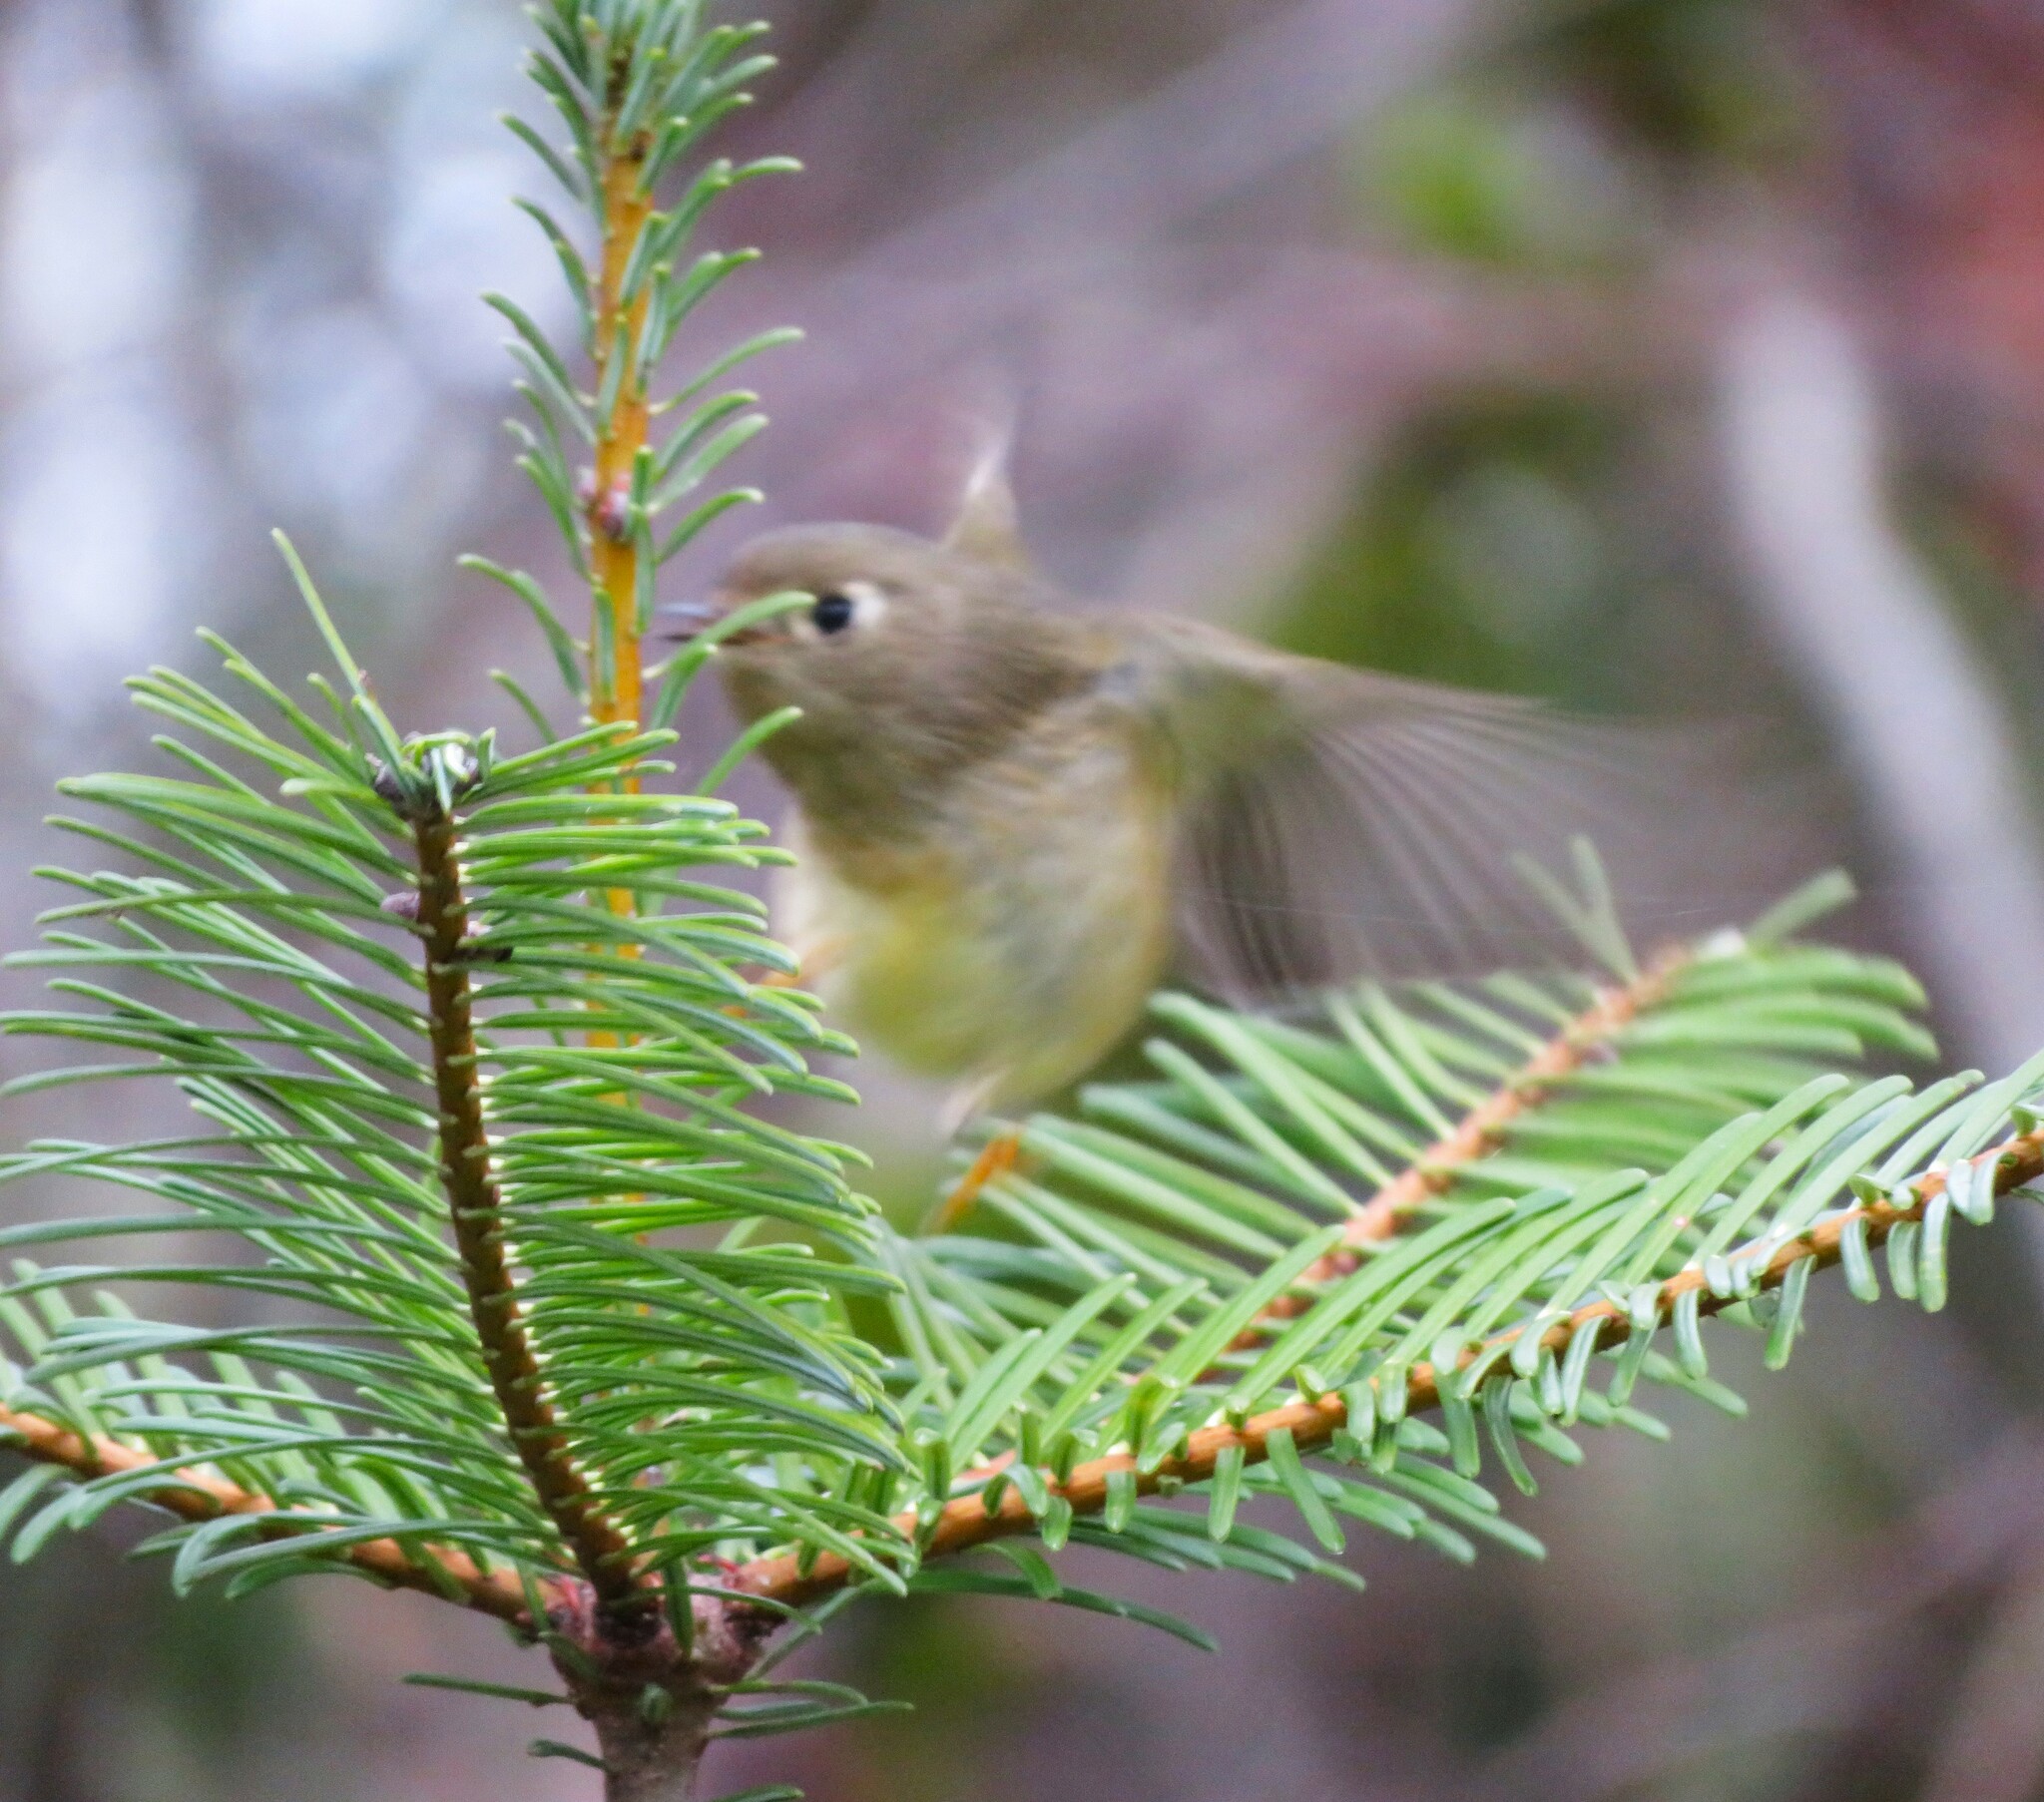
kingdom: Animalia
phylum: Chordata
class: Aves
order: Passeriformes
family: Regulidae
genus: Regulus
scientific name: Regulus calendula
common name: Ruby-crowned kinglet
